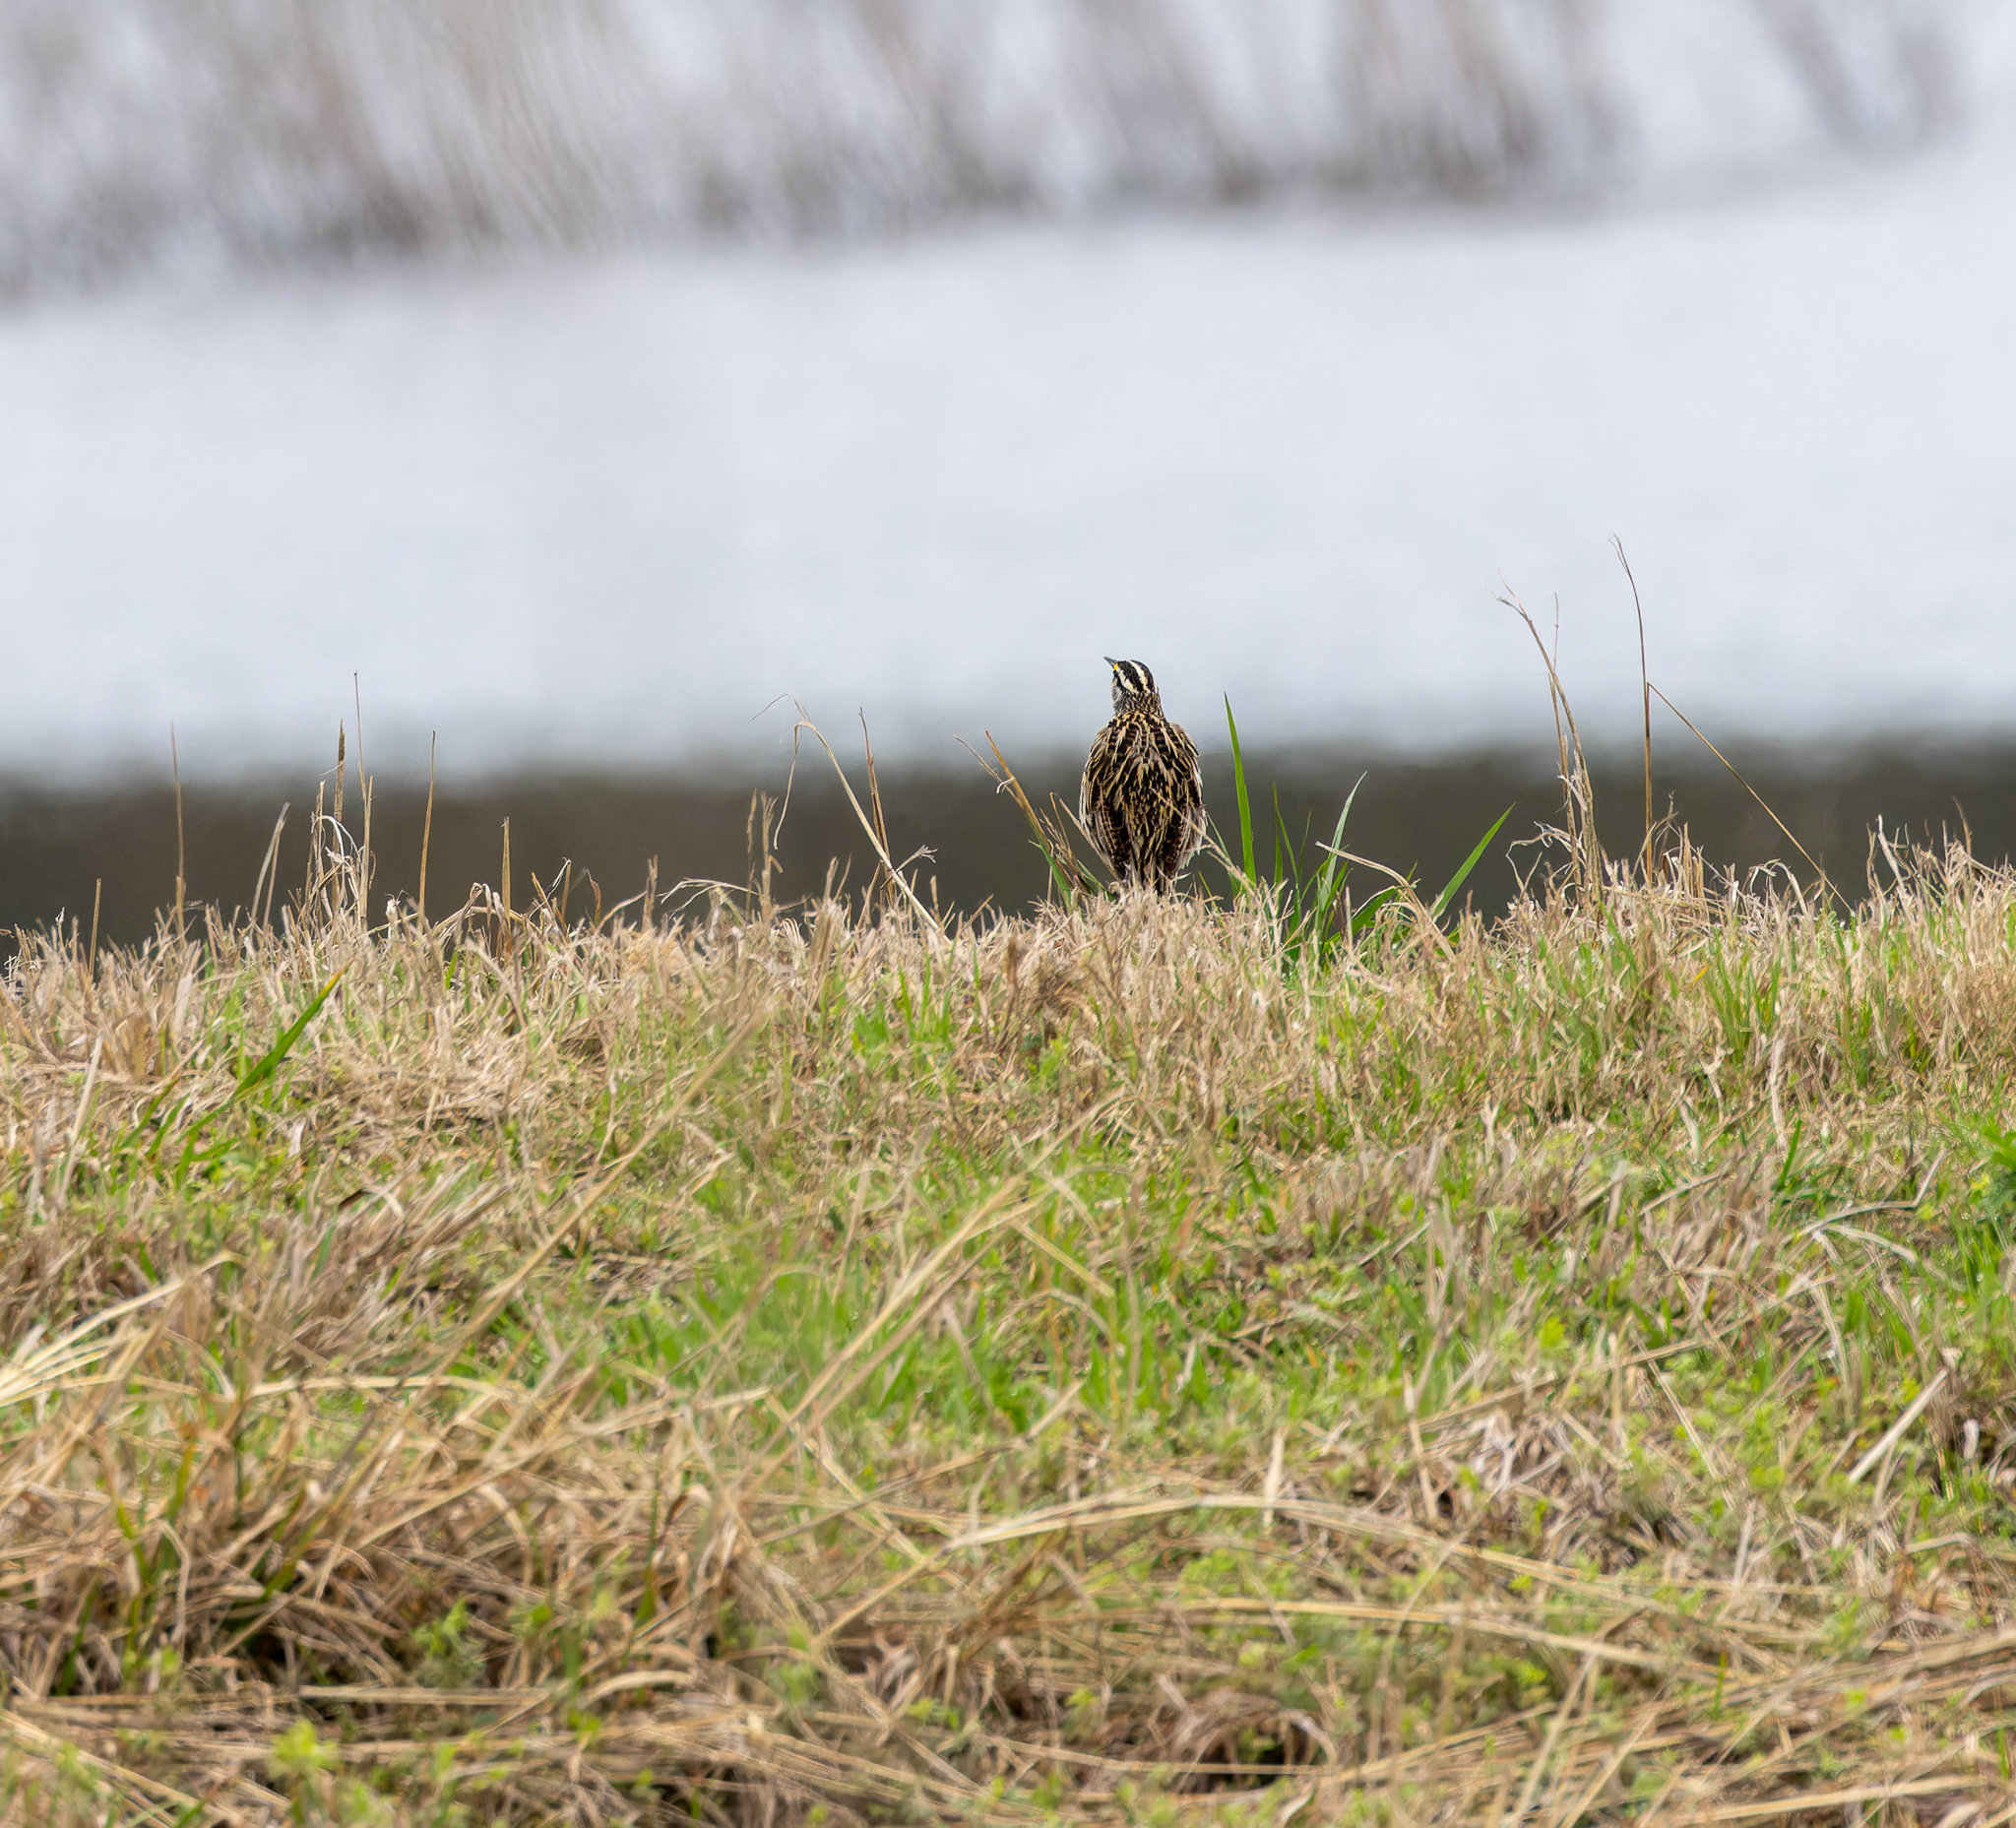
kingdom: Animalia
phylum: Chordata
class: Aves
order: Passeriformes
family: Icteridae
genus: Sturnella
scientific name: Sturnella magna
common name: Eastern meadowlark
